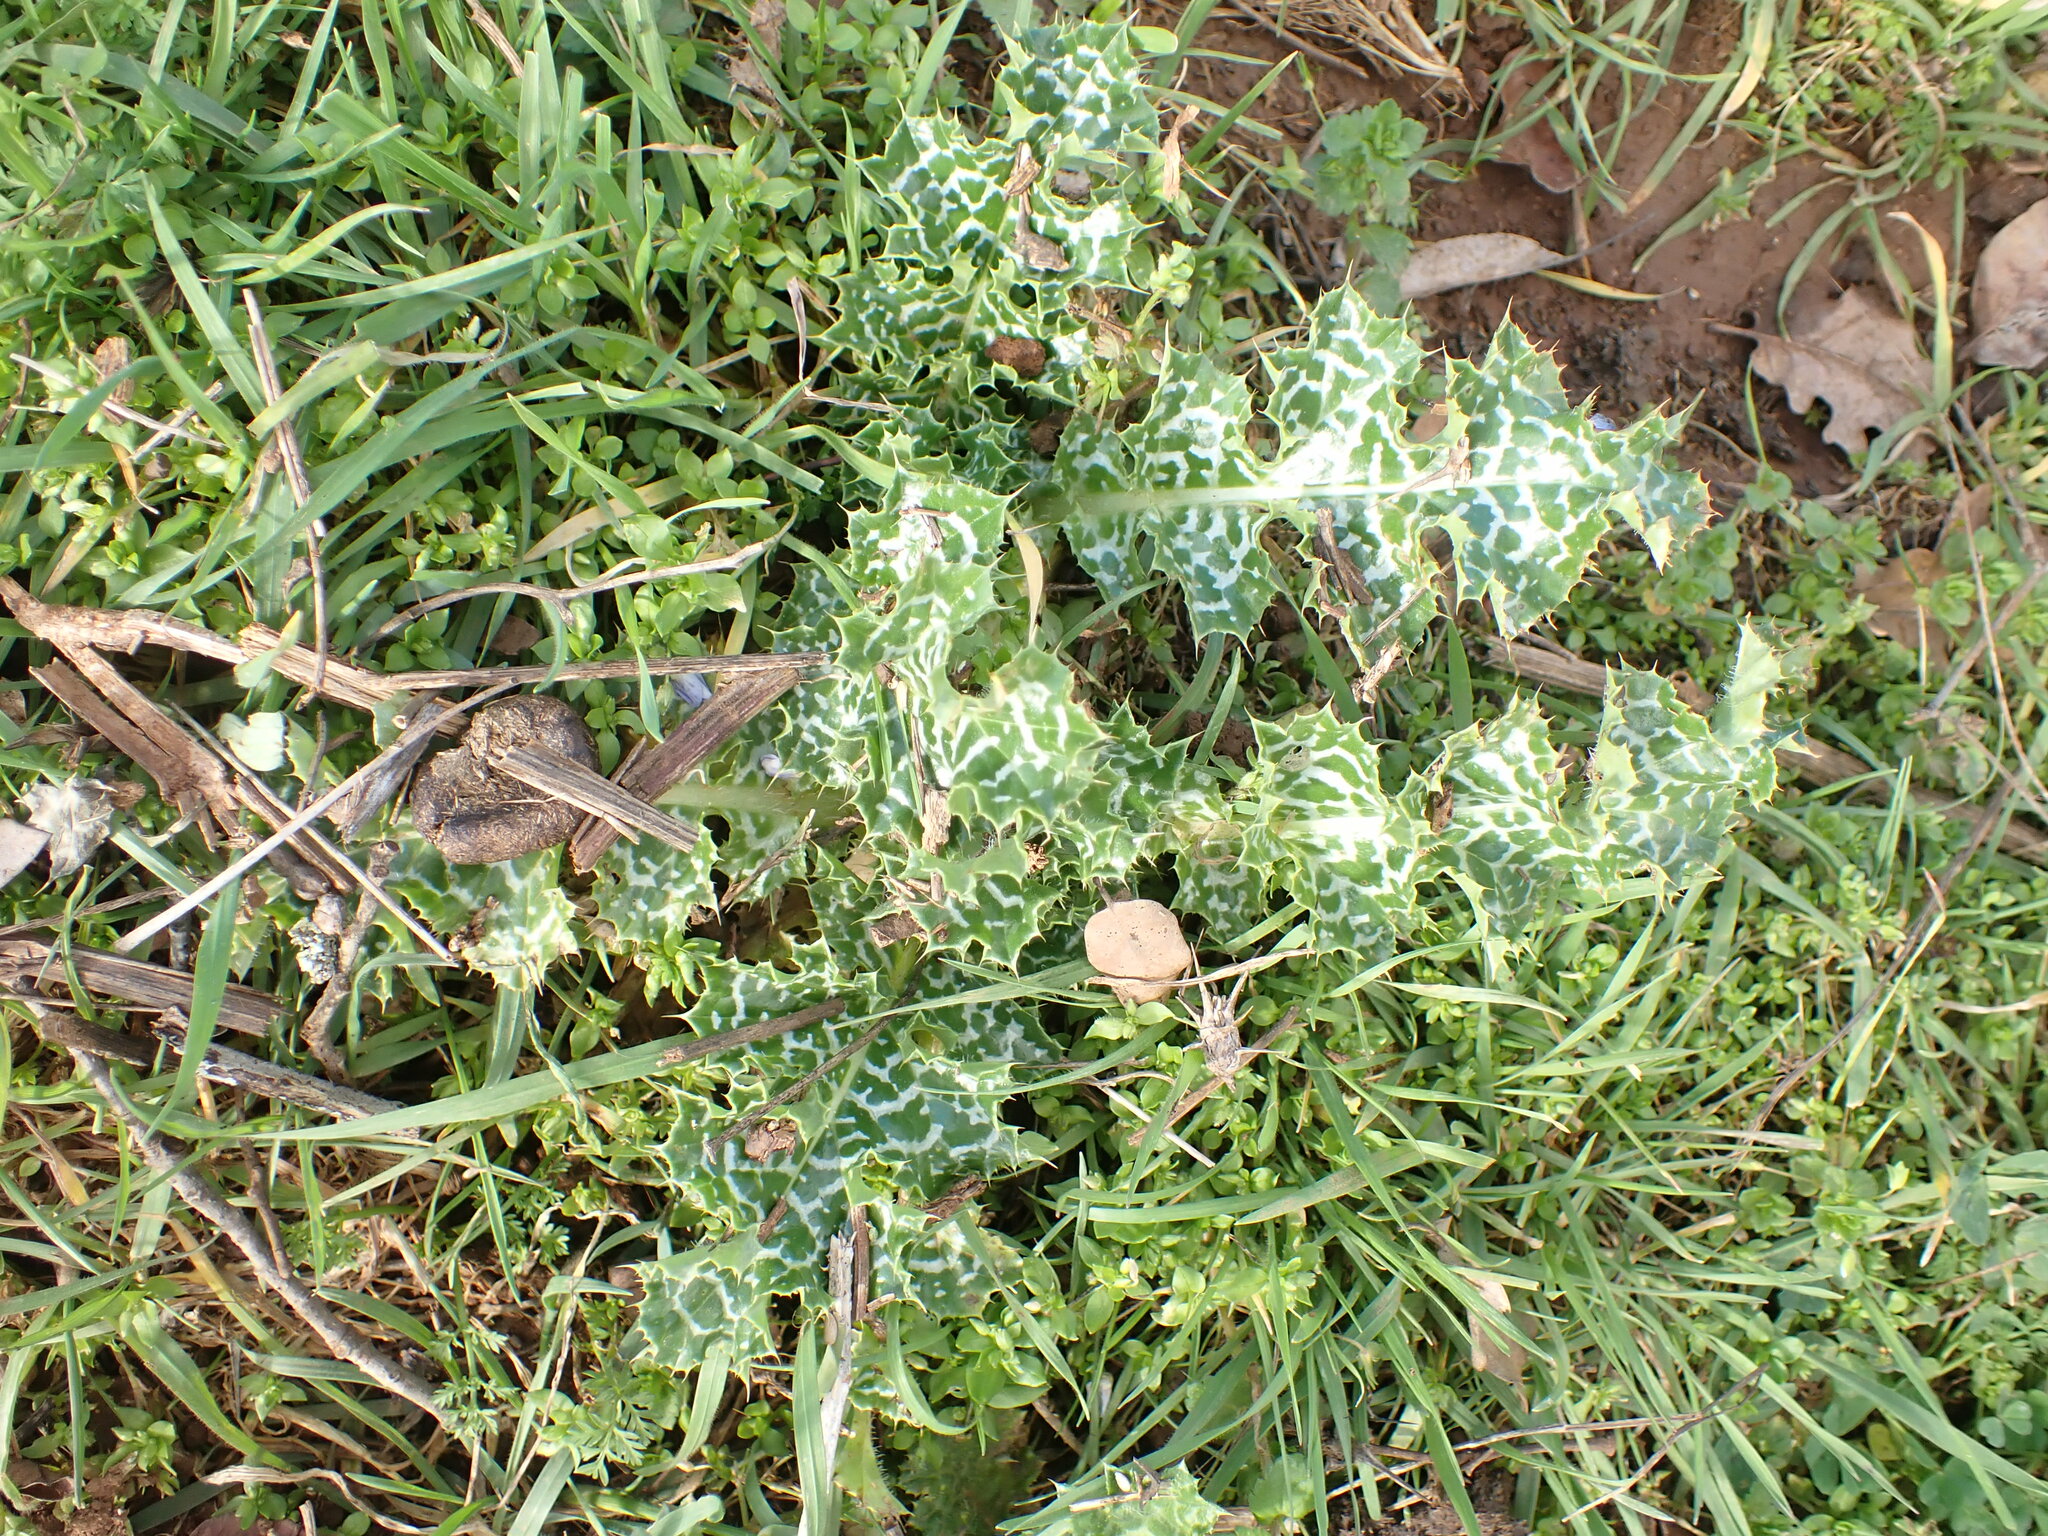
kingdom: Plantae
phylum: Tracheophyta
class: Magnoliopsida
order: Asterales
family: Asteraceae
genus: Silybum
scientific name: Silybum marianum
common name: Milk thistle
